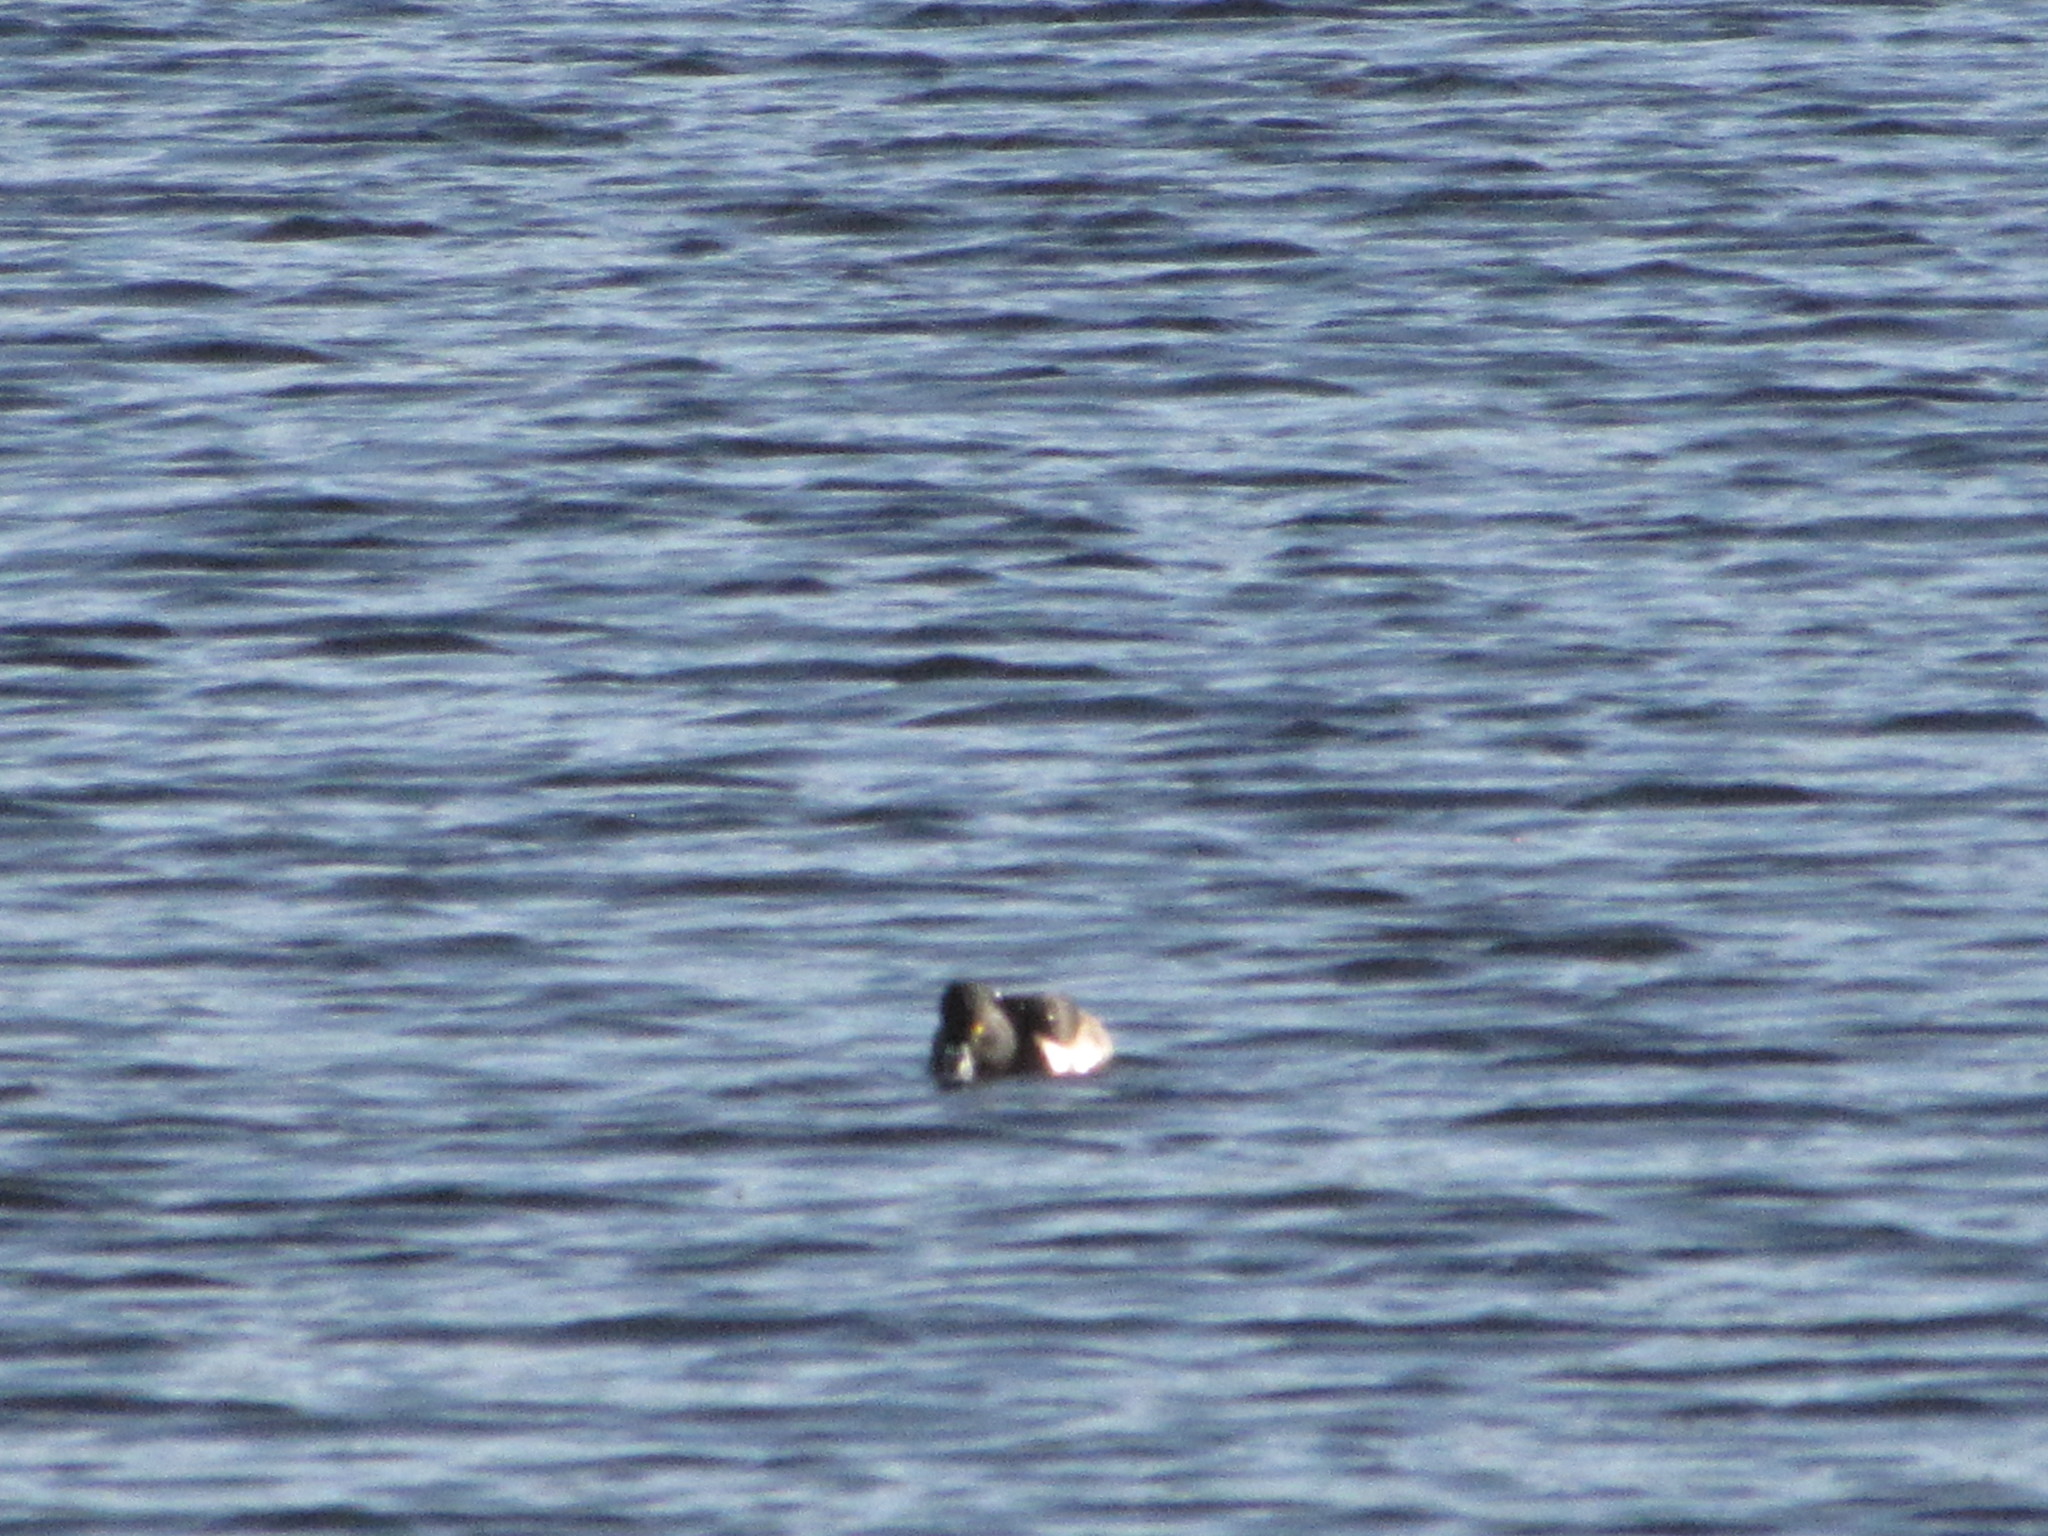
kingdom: Animalia
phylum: Chordata
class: Aves
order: Anseriformes
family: Anatidae
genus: Aythya
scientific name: Aythya collaris
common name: Ring-necked duck
